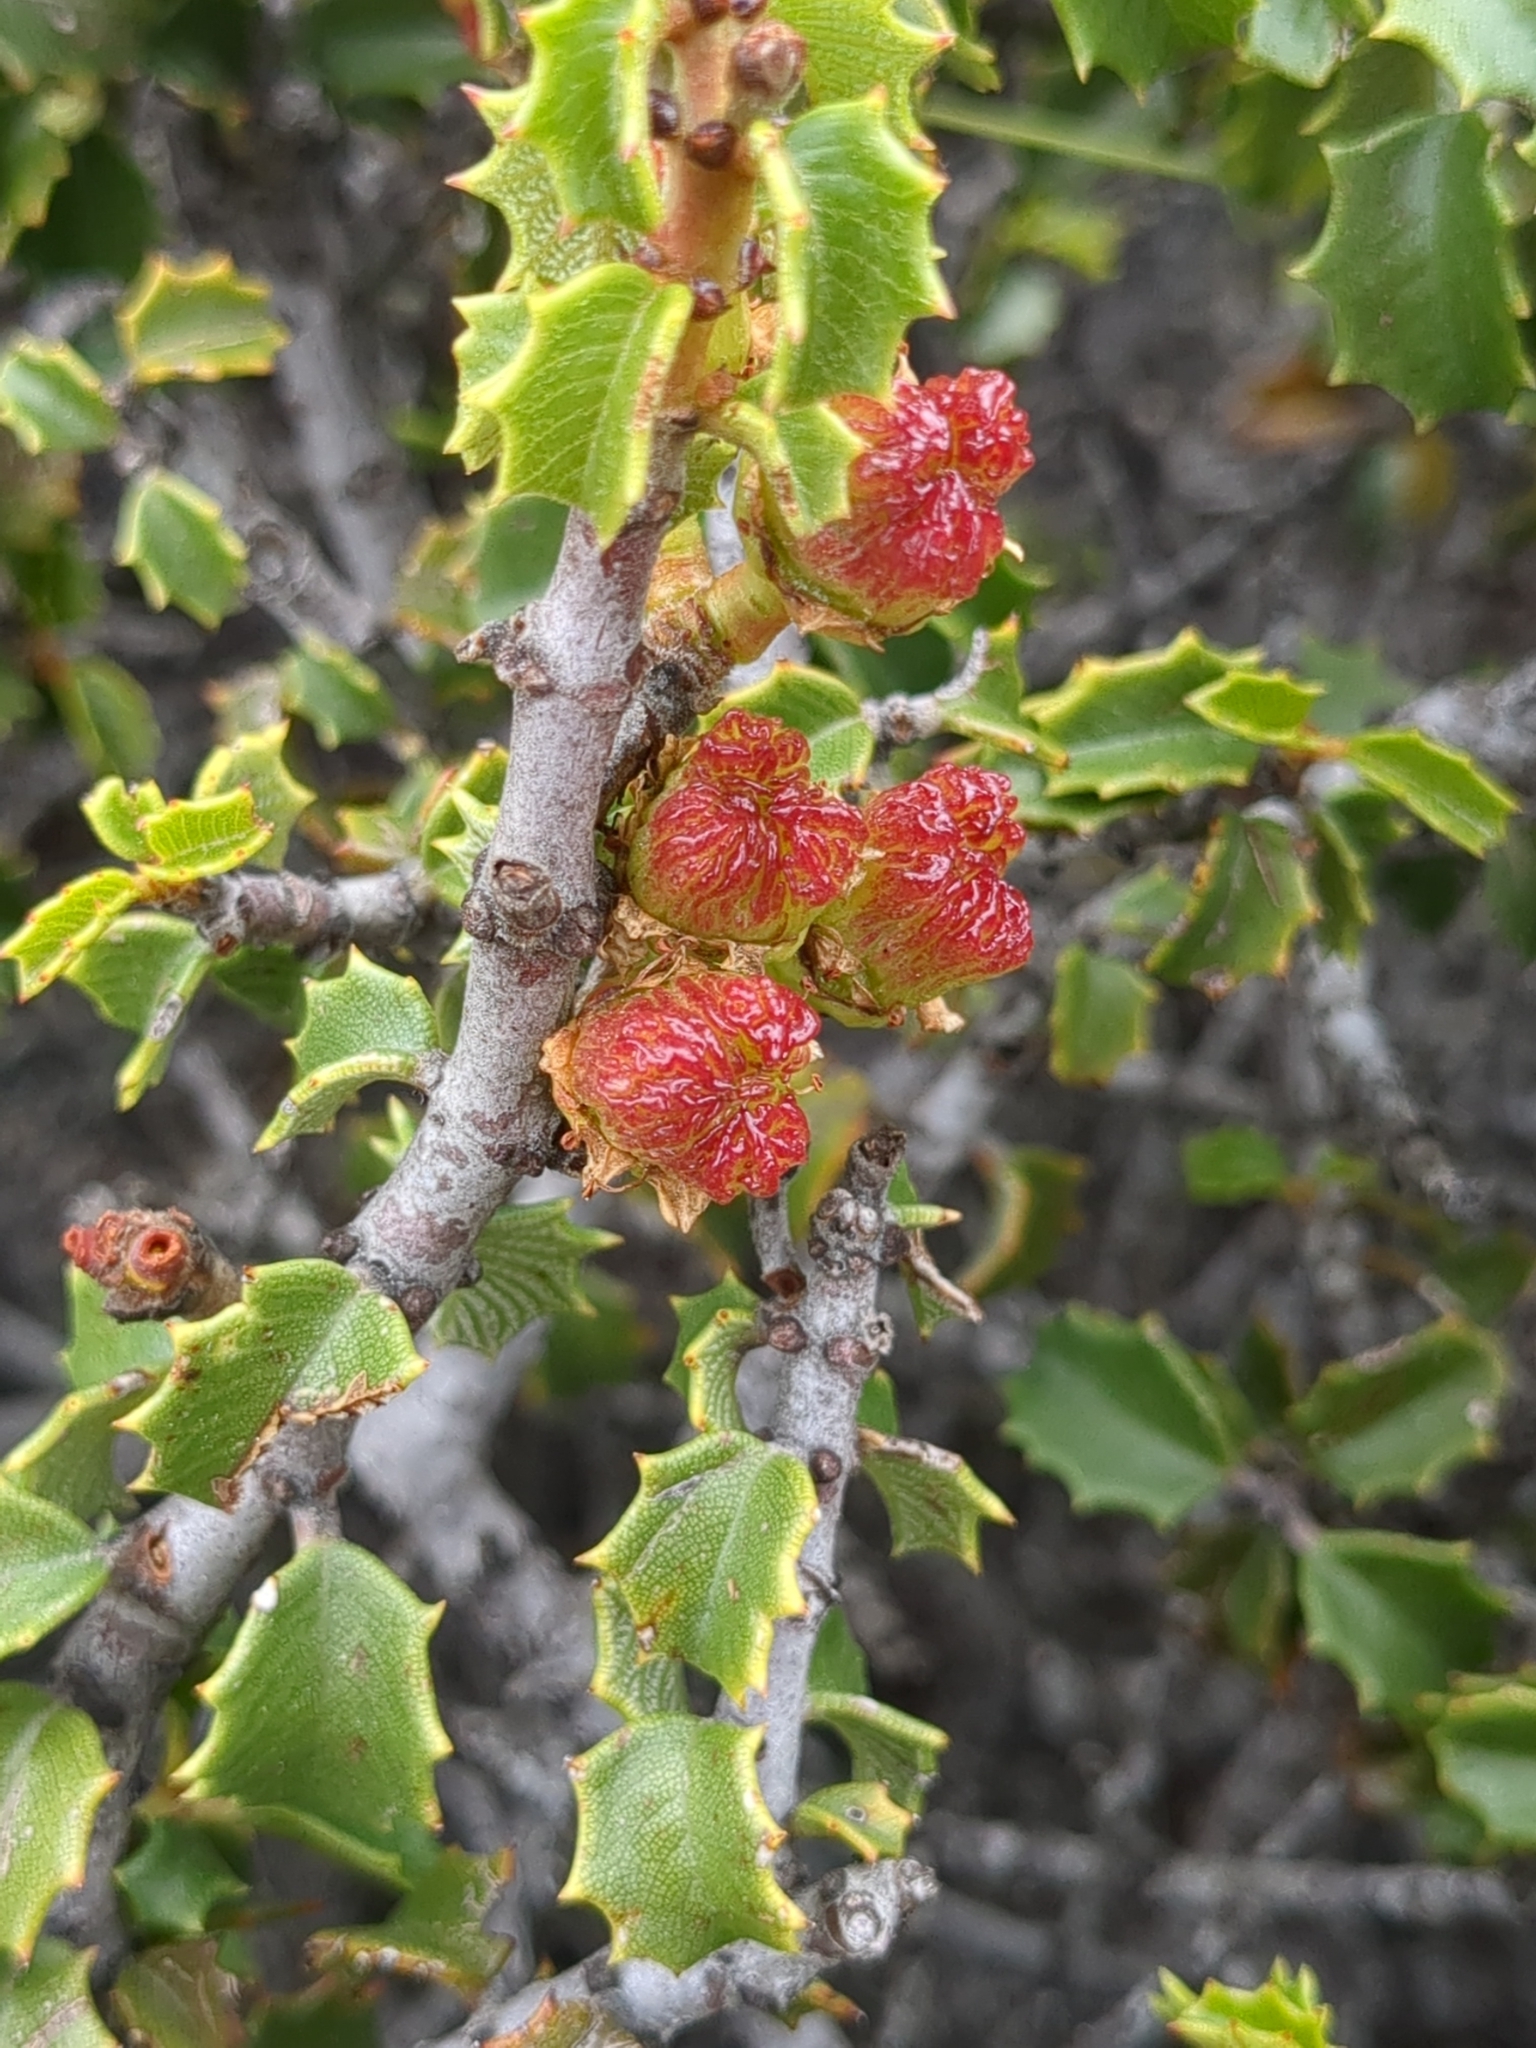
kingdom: Plantae
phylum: Tracheophyta
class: Magnoliopsida
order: Rosales
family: Rhamnaceae
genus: Ceanothus
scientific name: Ceanothus jepsonii
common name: Muskbrush
